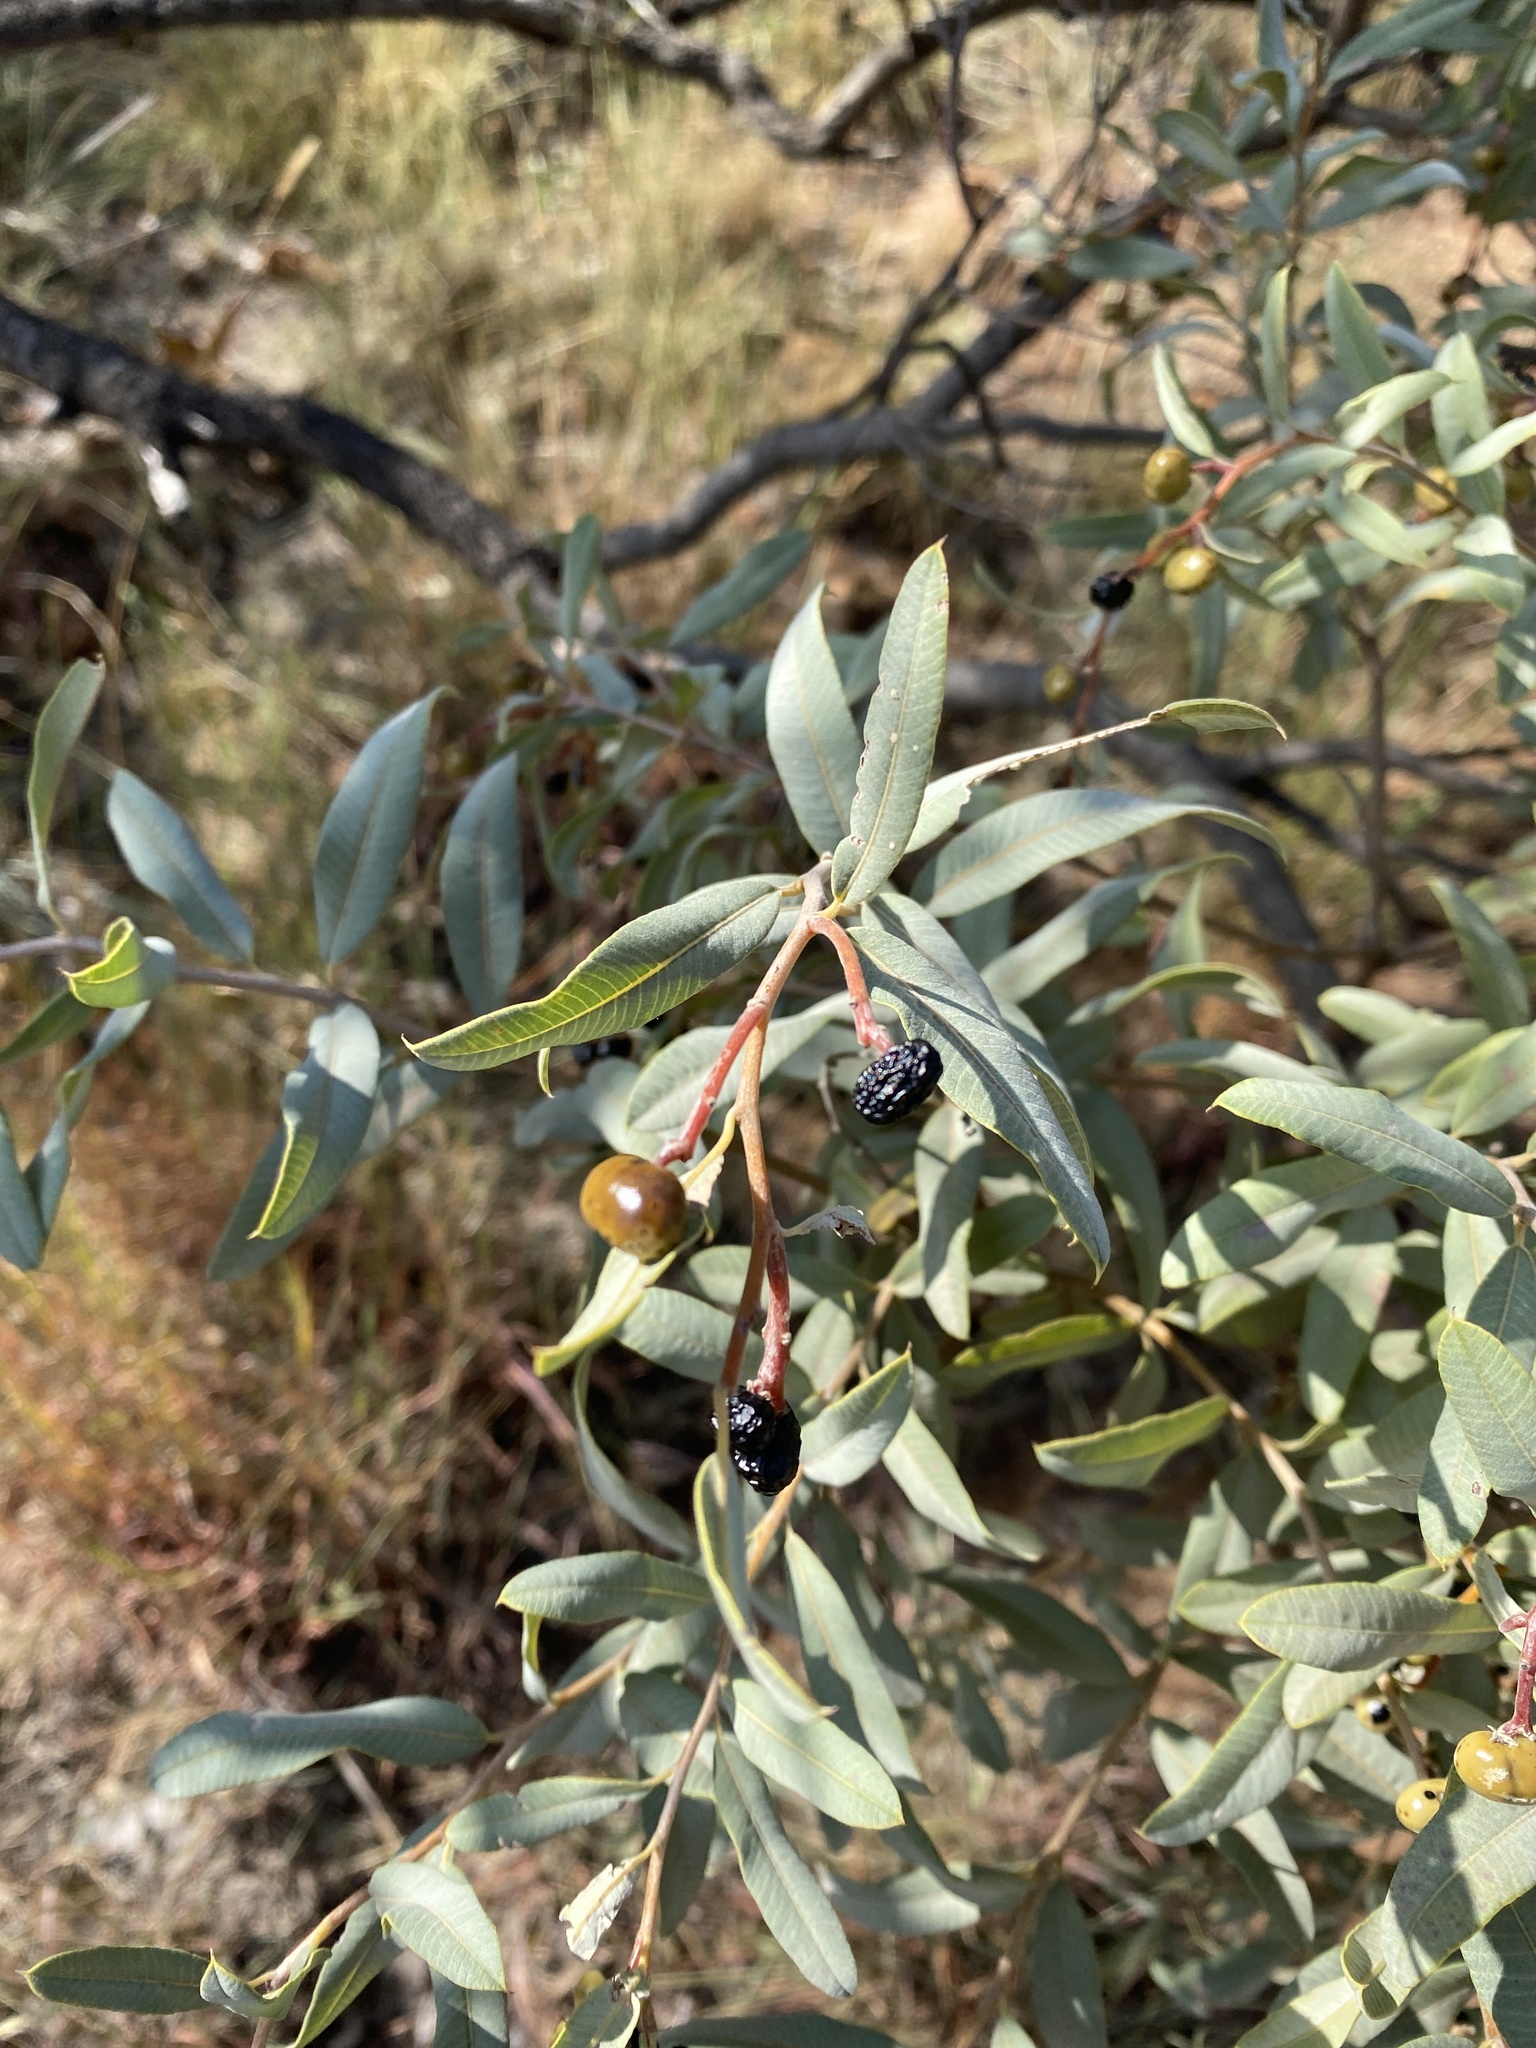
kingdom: Plantae
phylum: Tracheophyta
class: Magnoliopsida
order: Sapindales
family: Anacardiaceae
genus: Ozoroa
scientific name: Ozoroa paniculosa
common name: Bushveld ozoroa
